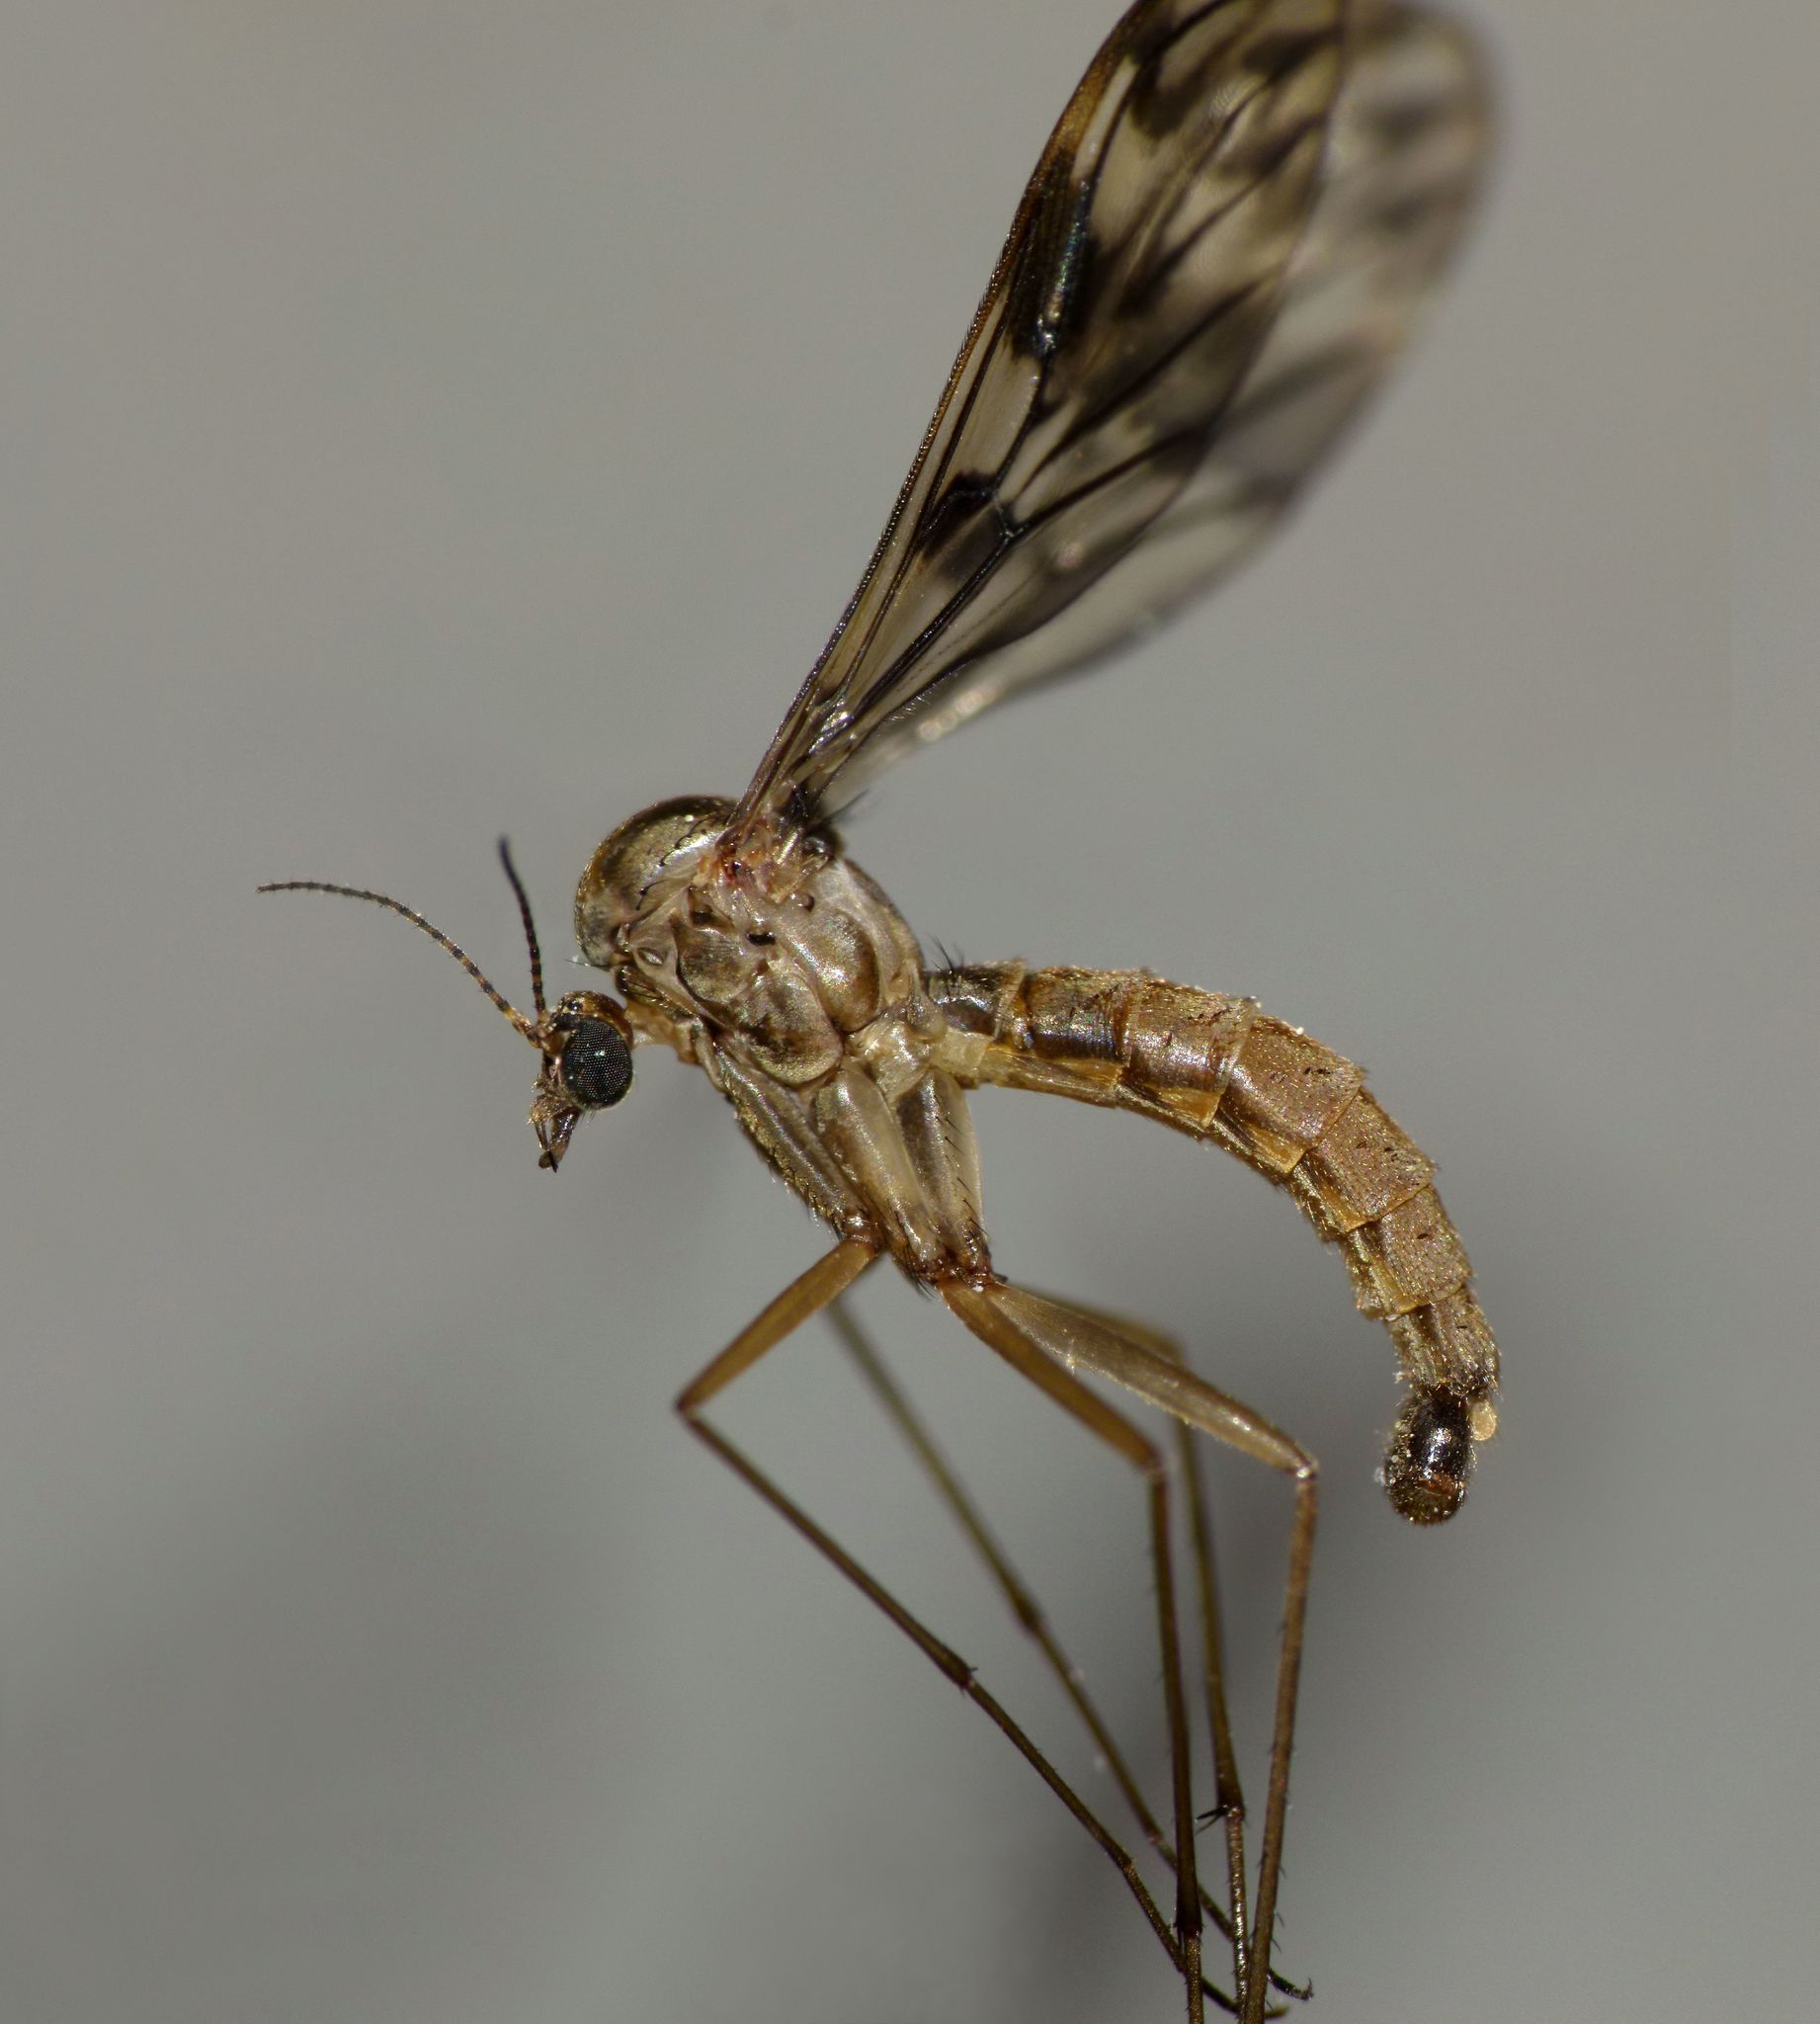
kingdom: Animalia
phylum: Arthropoda
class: Insecta
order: Diptera
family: Ditomyiidae
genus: Nervijuncta
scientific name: Nervijuncta wakefieldi
